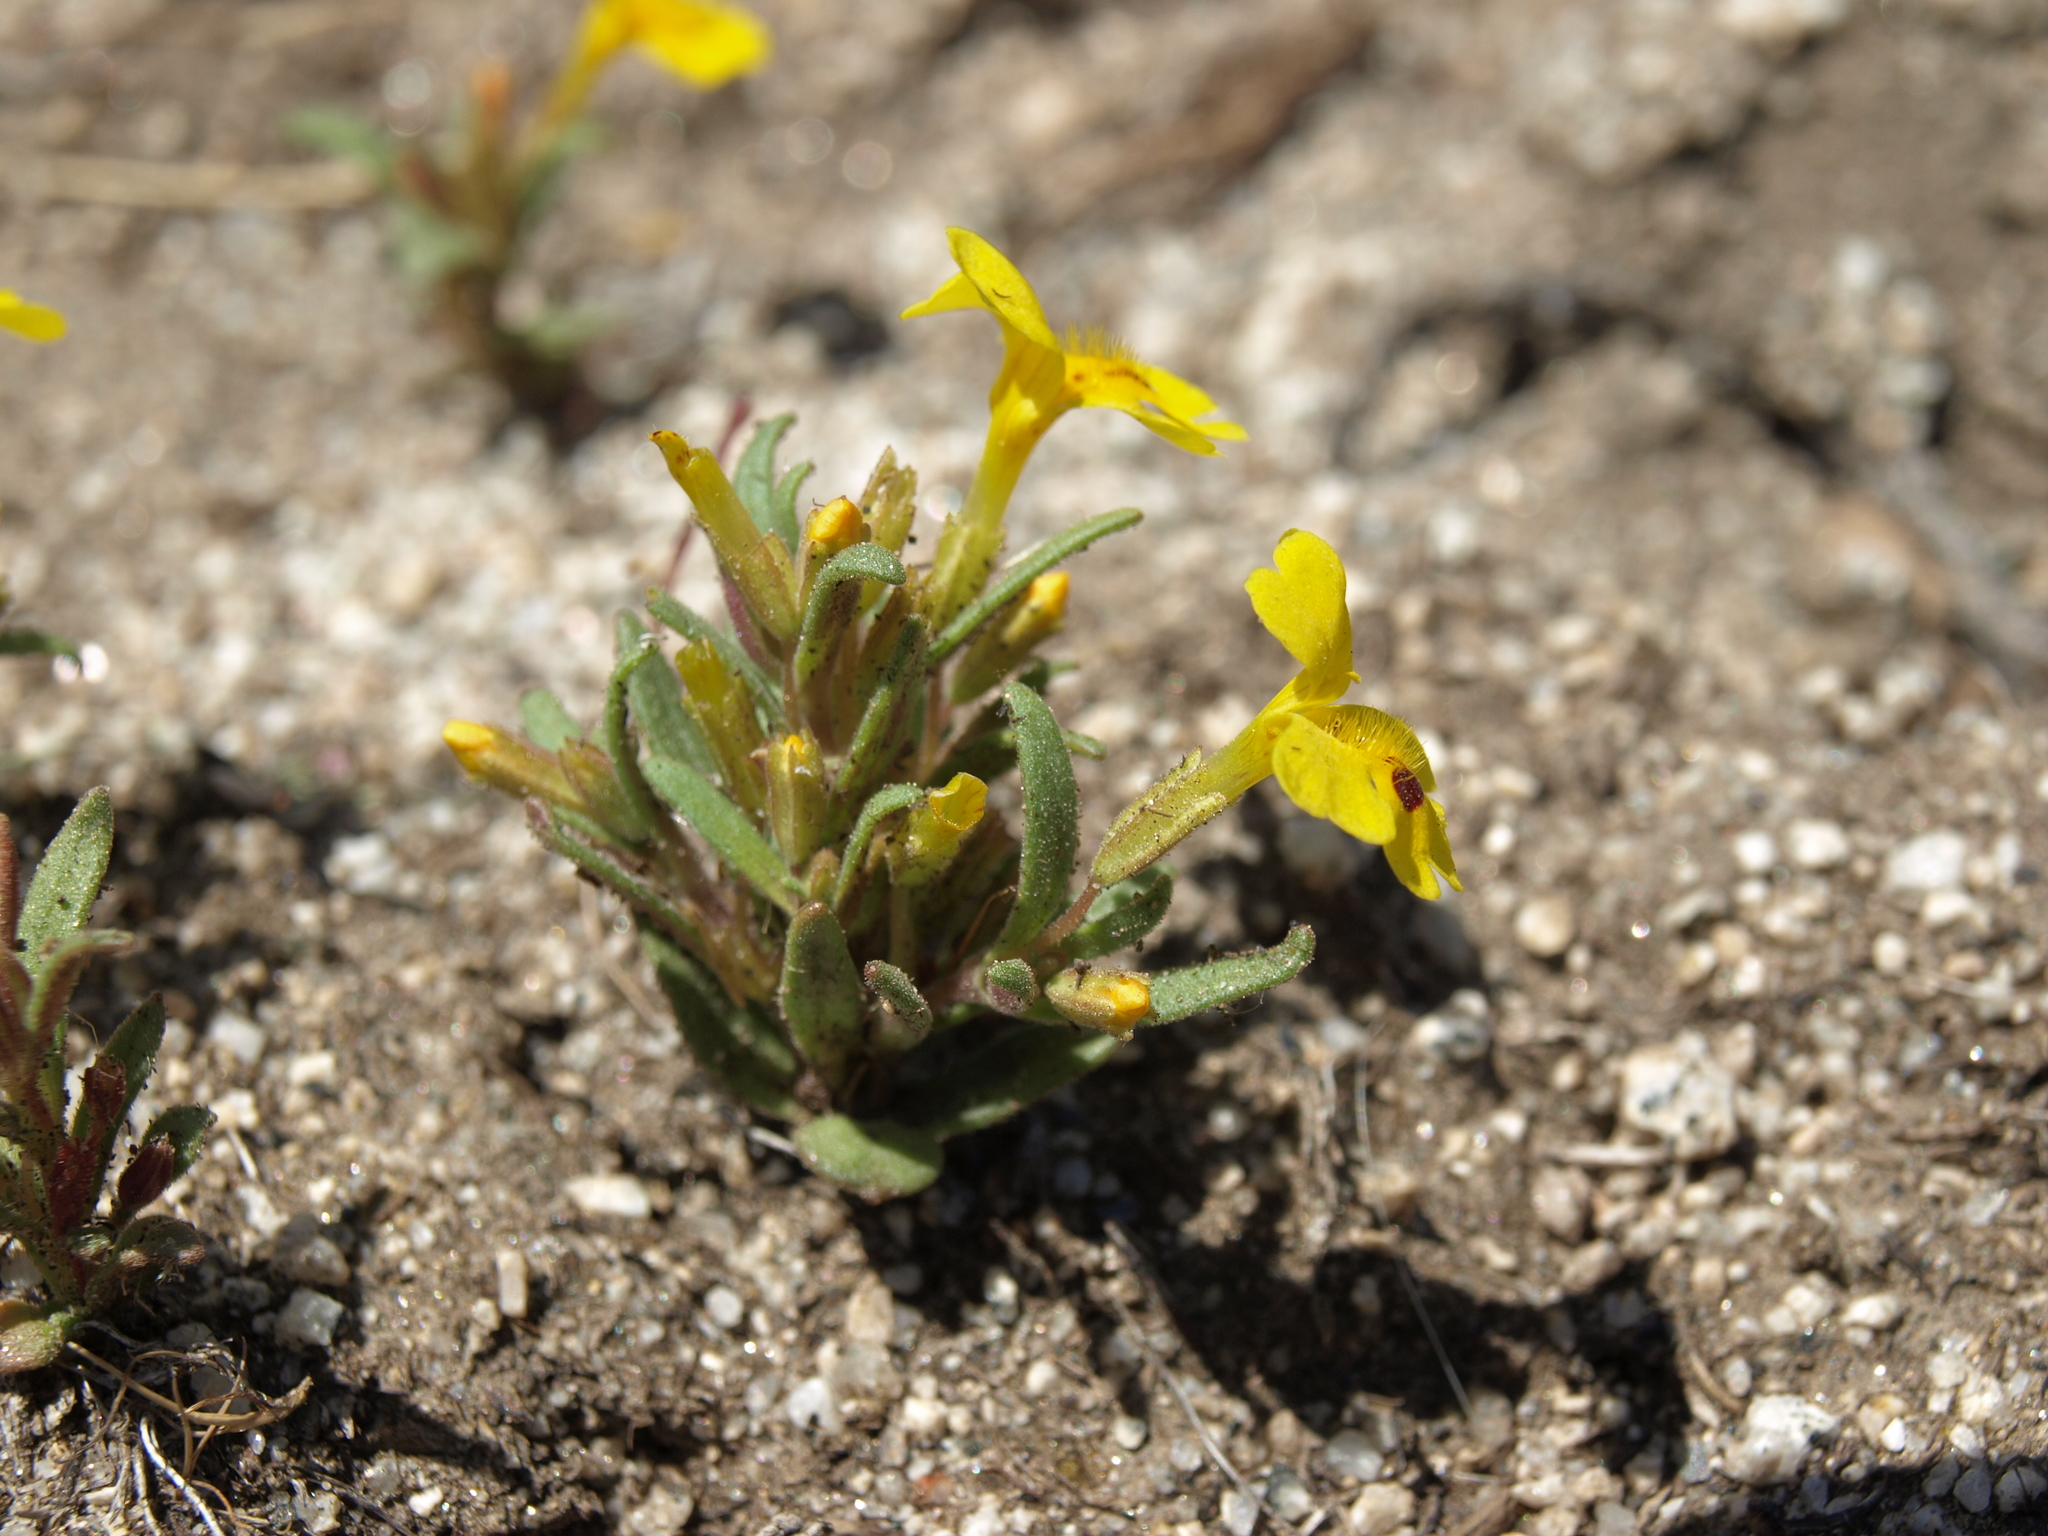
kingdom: Plantae
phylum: Tracheophyta
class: Magnoliopsida
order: Lamiales
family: Phrymaceae
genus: Erythranthe
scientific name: Erythranthe carsonensis
